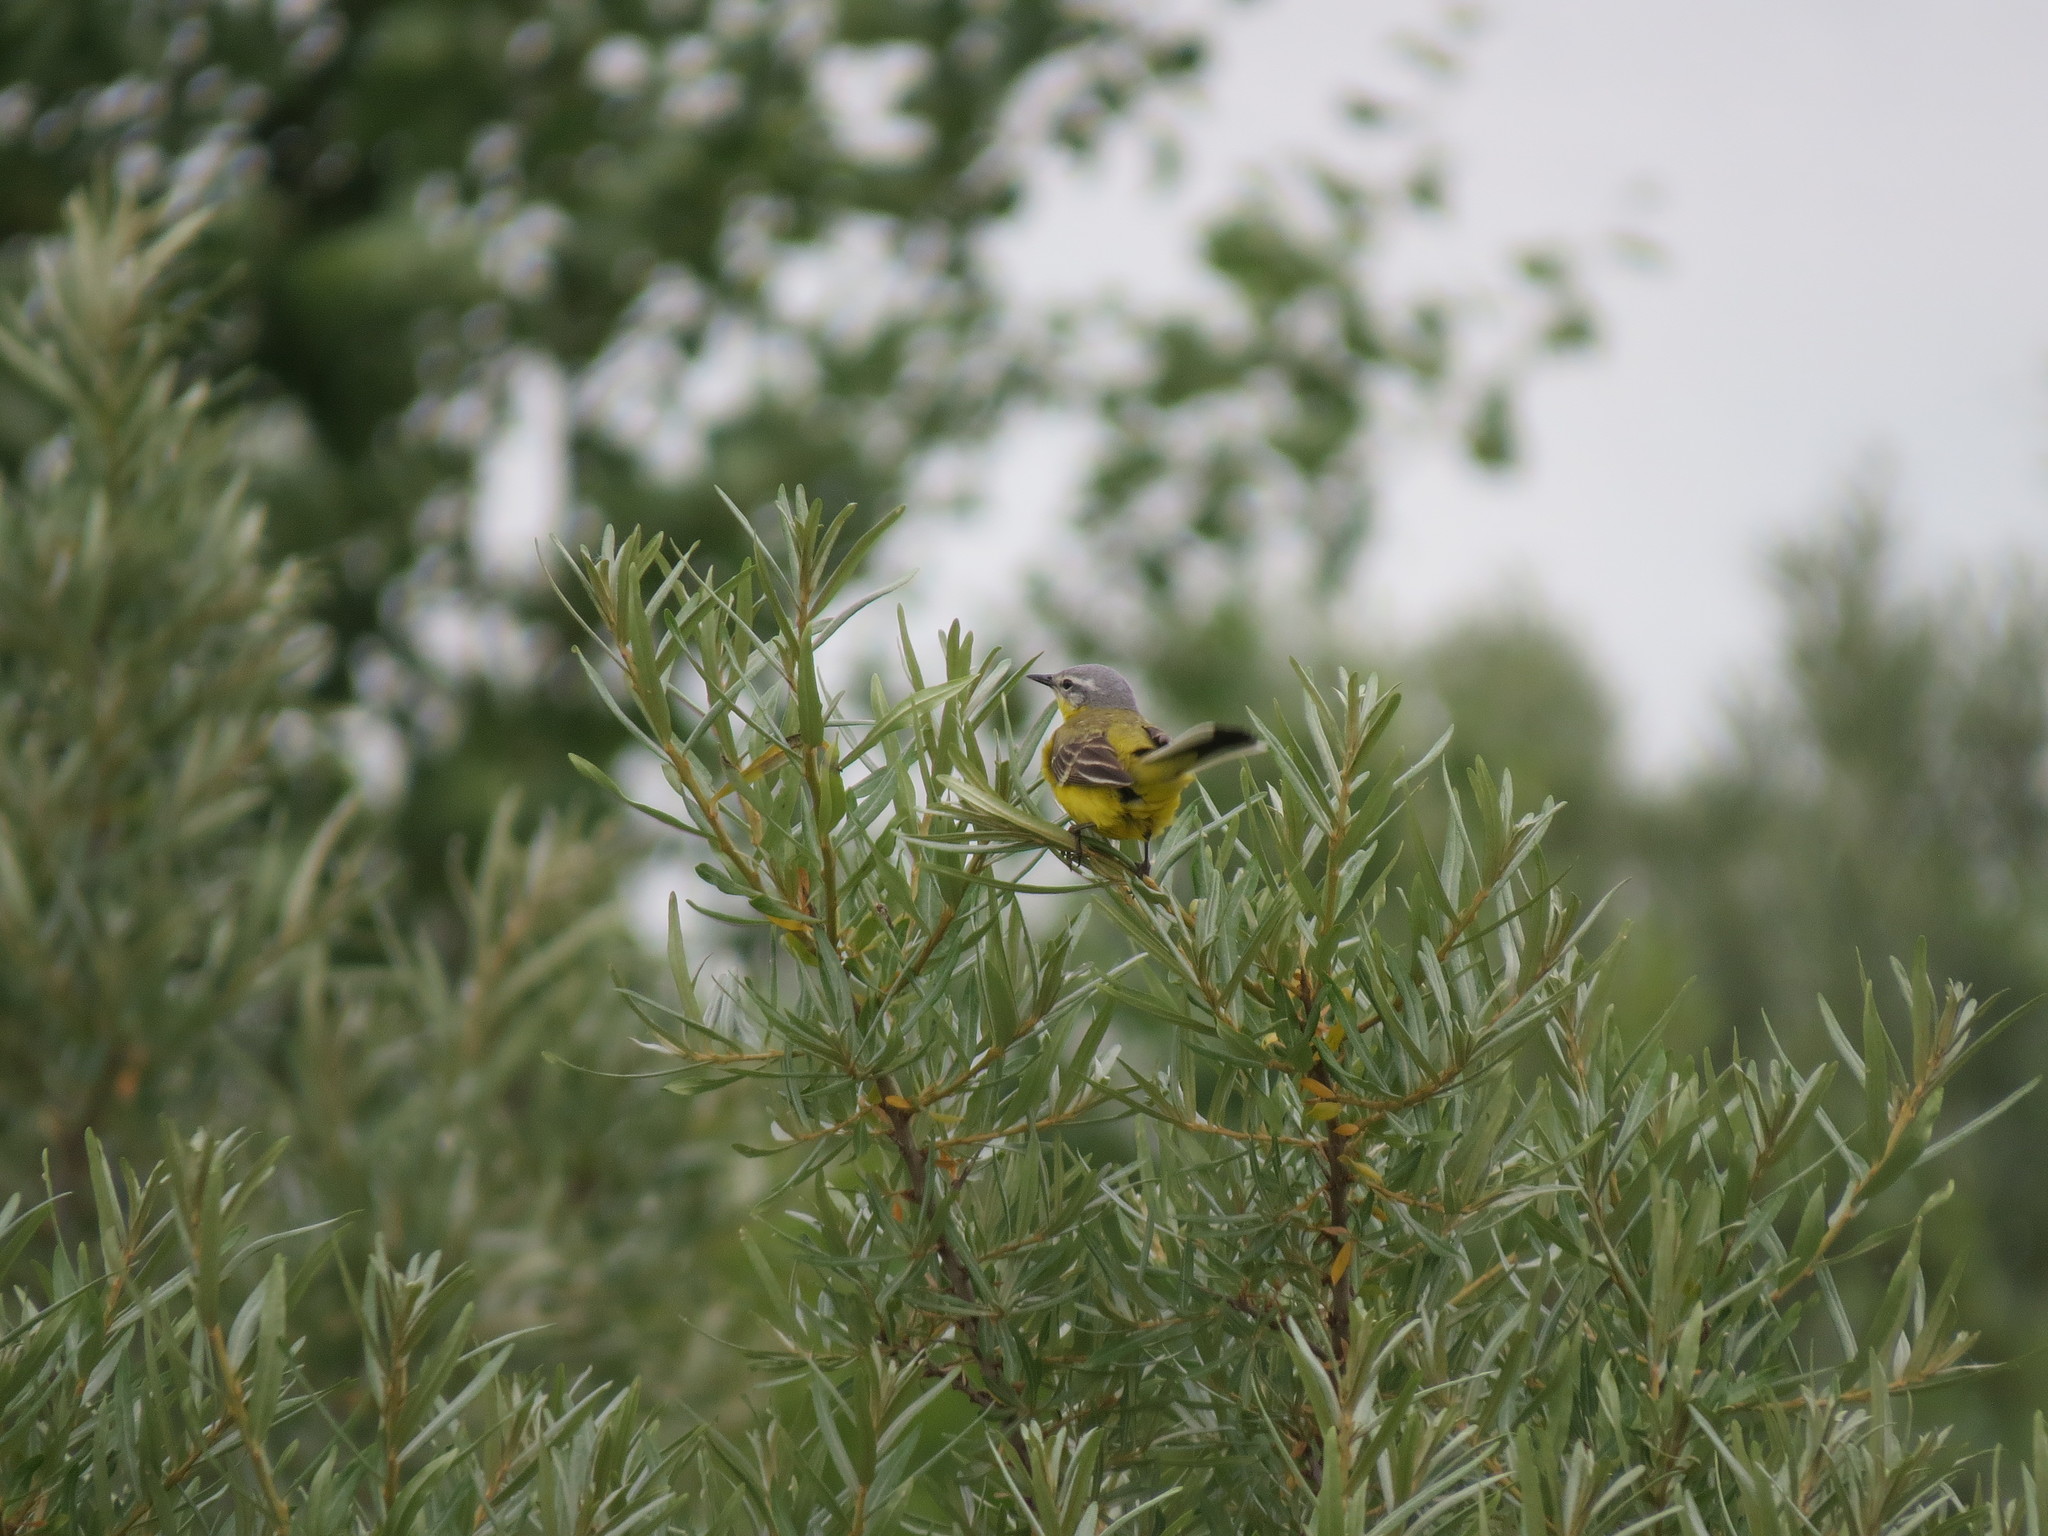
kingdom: Animalia
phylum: Chordata
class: Aves
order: Passeriformes
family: Motacillidae
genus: Motacilla
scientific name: Motacilla flava
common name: Western yellow wagtail
